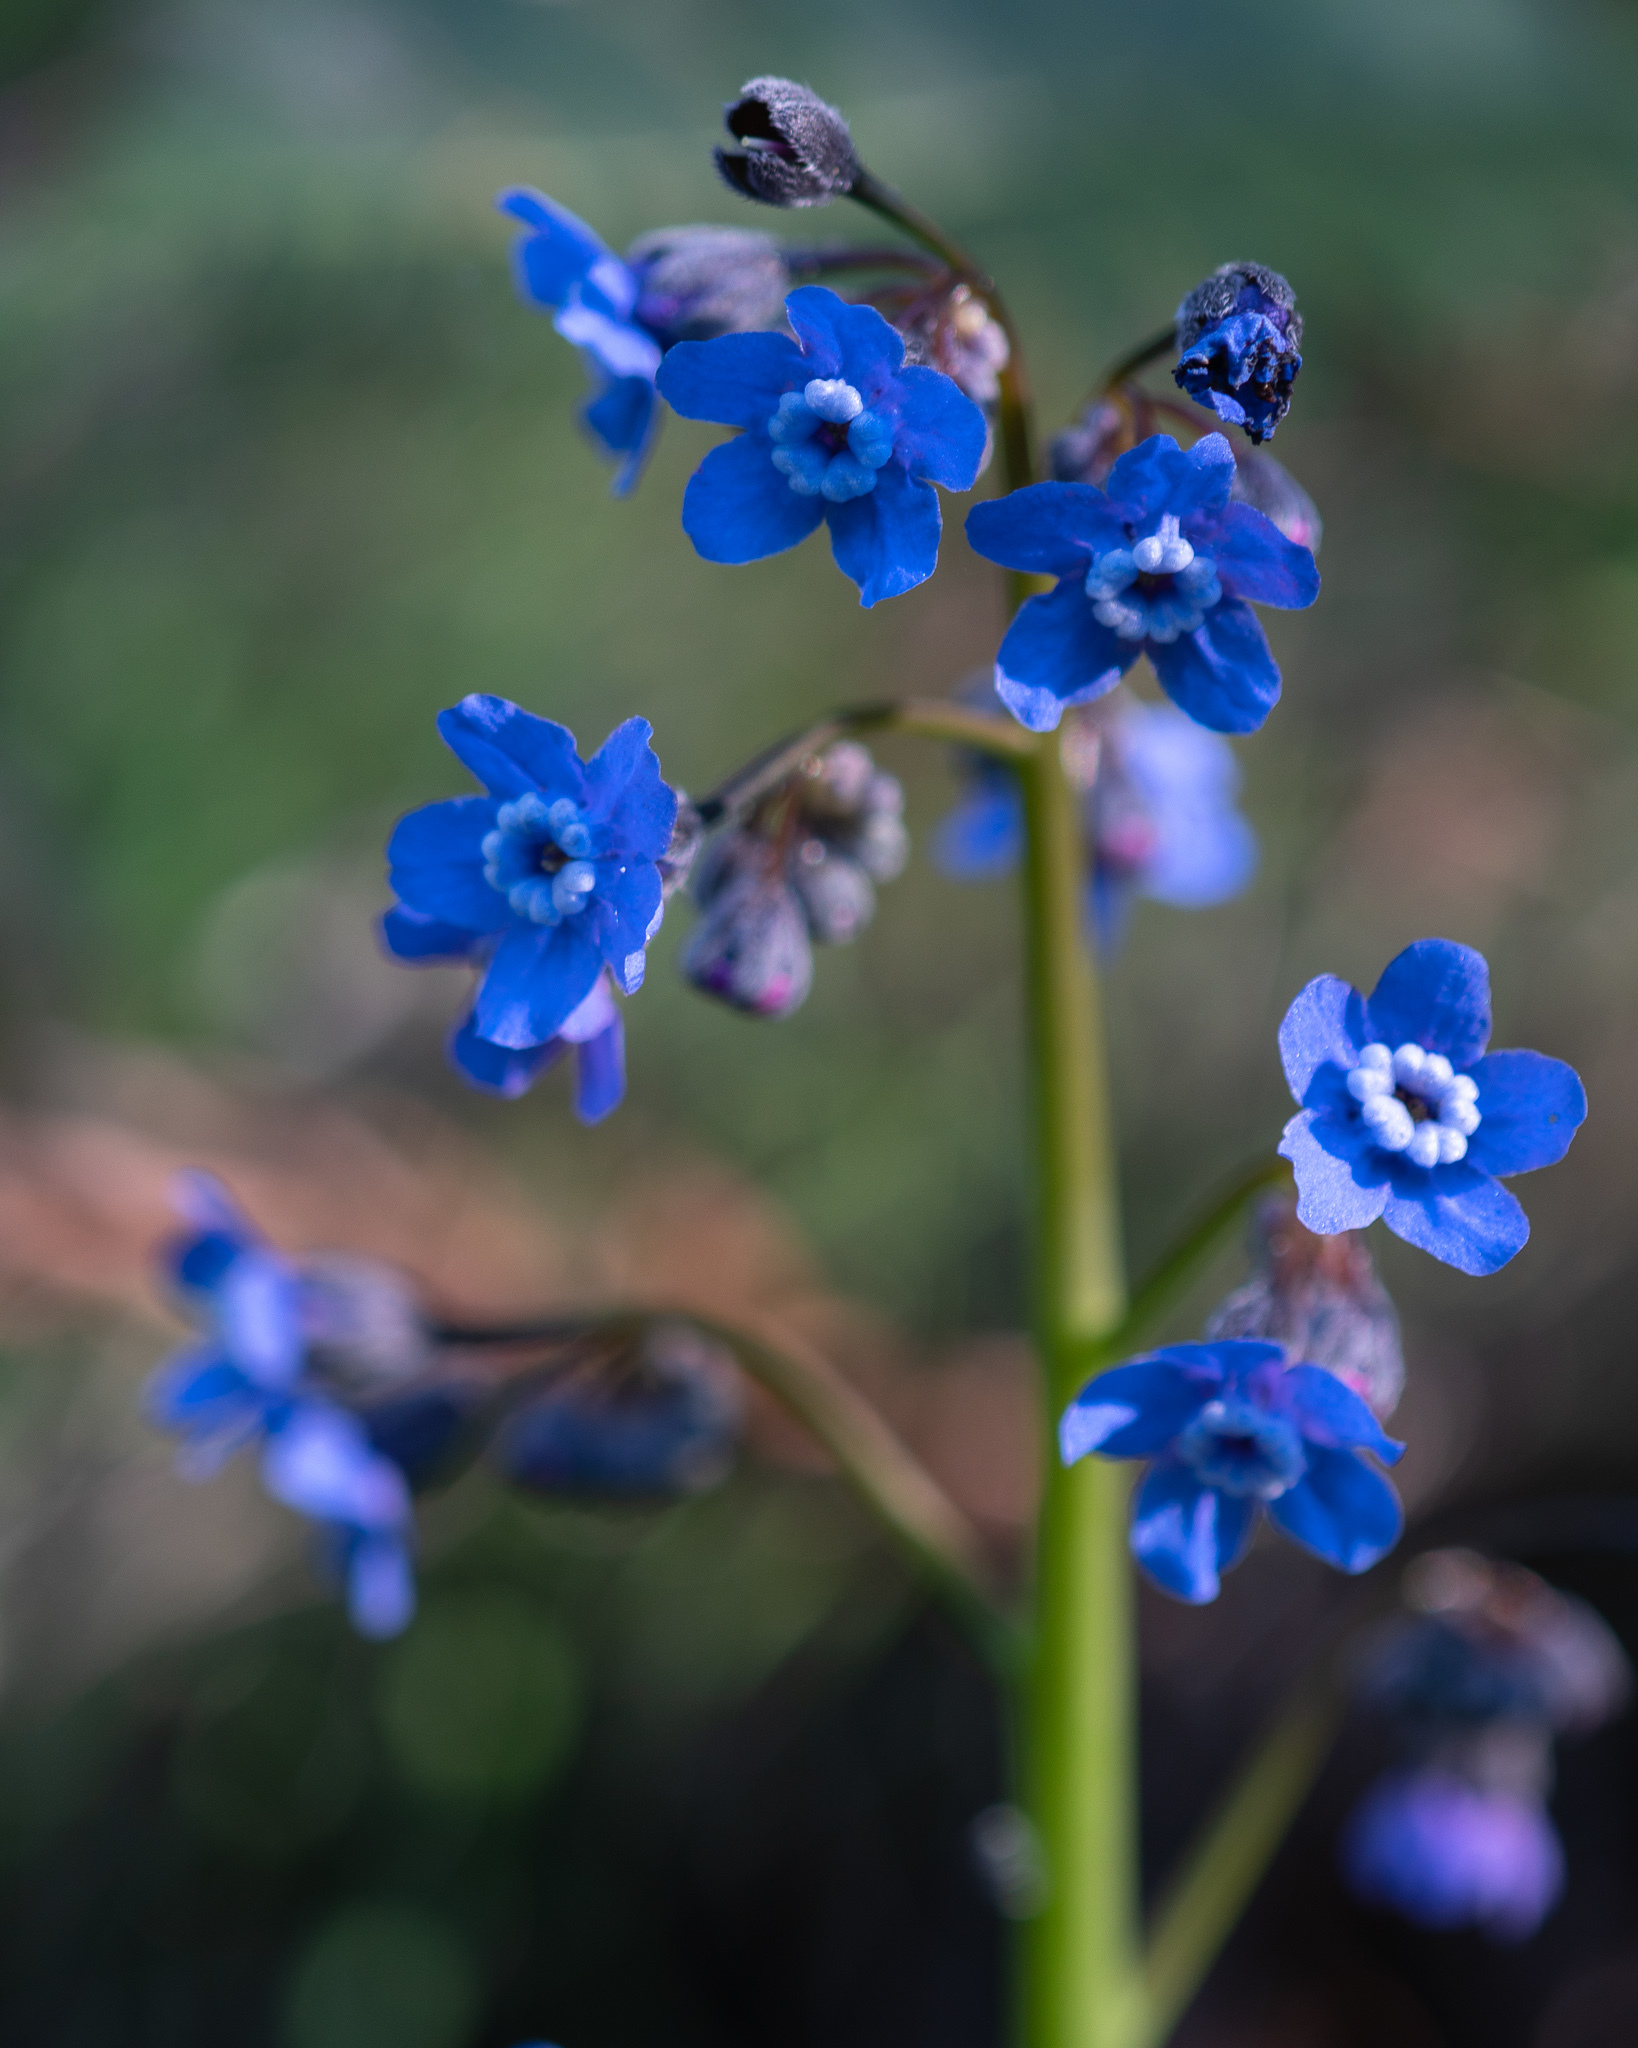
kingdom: Plantae
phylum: Tracheophyta
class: Magnoliopsida
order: Boraginales
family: Boraginaceae
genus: Adelinia
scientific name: Adelinia grande
